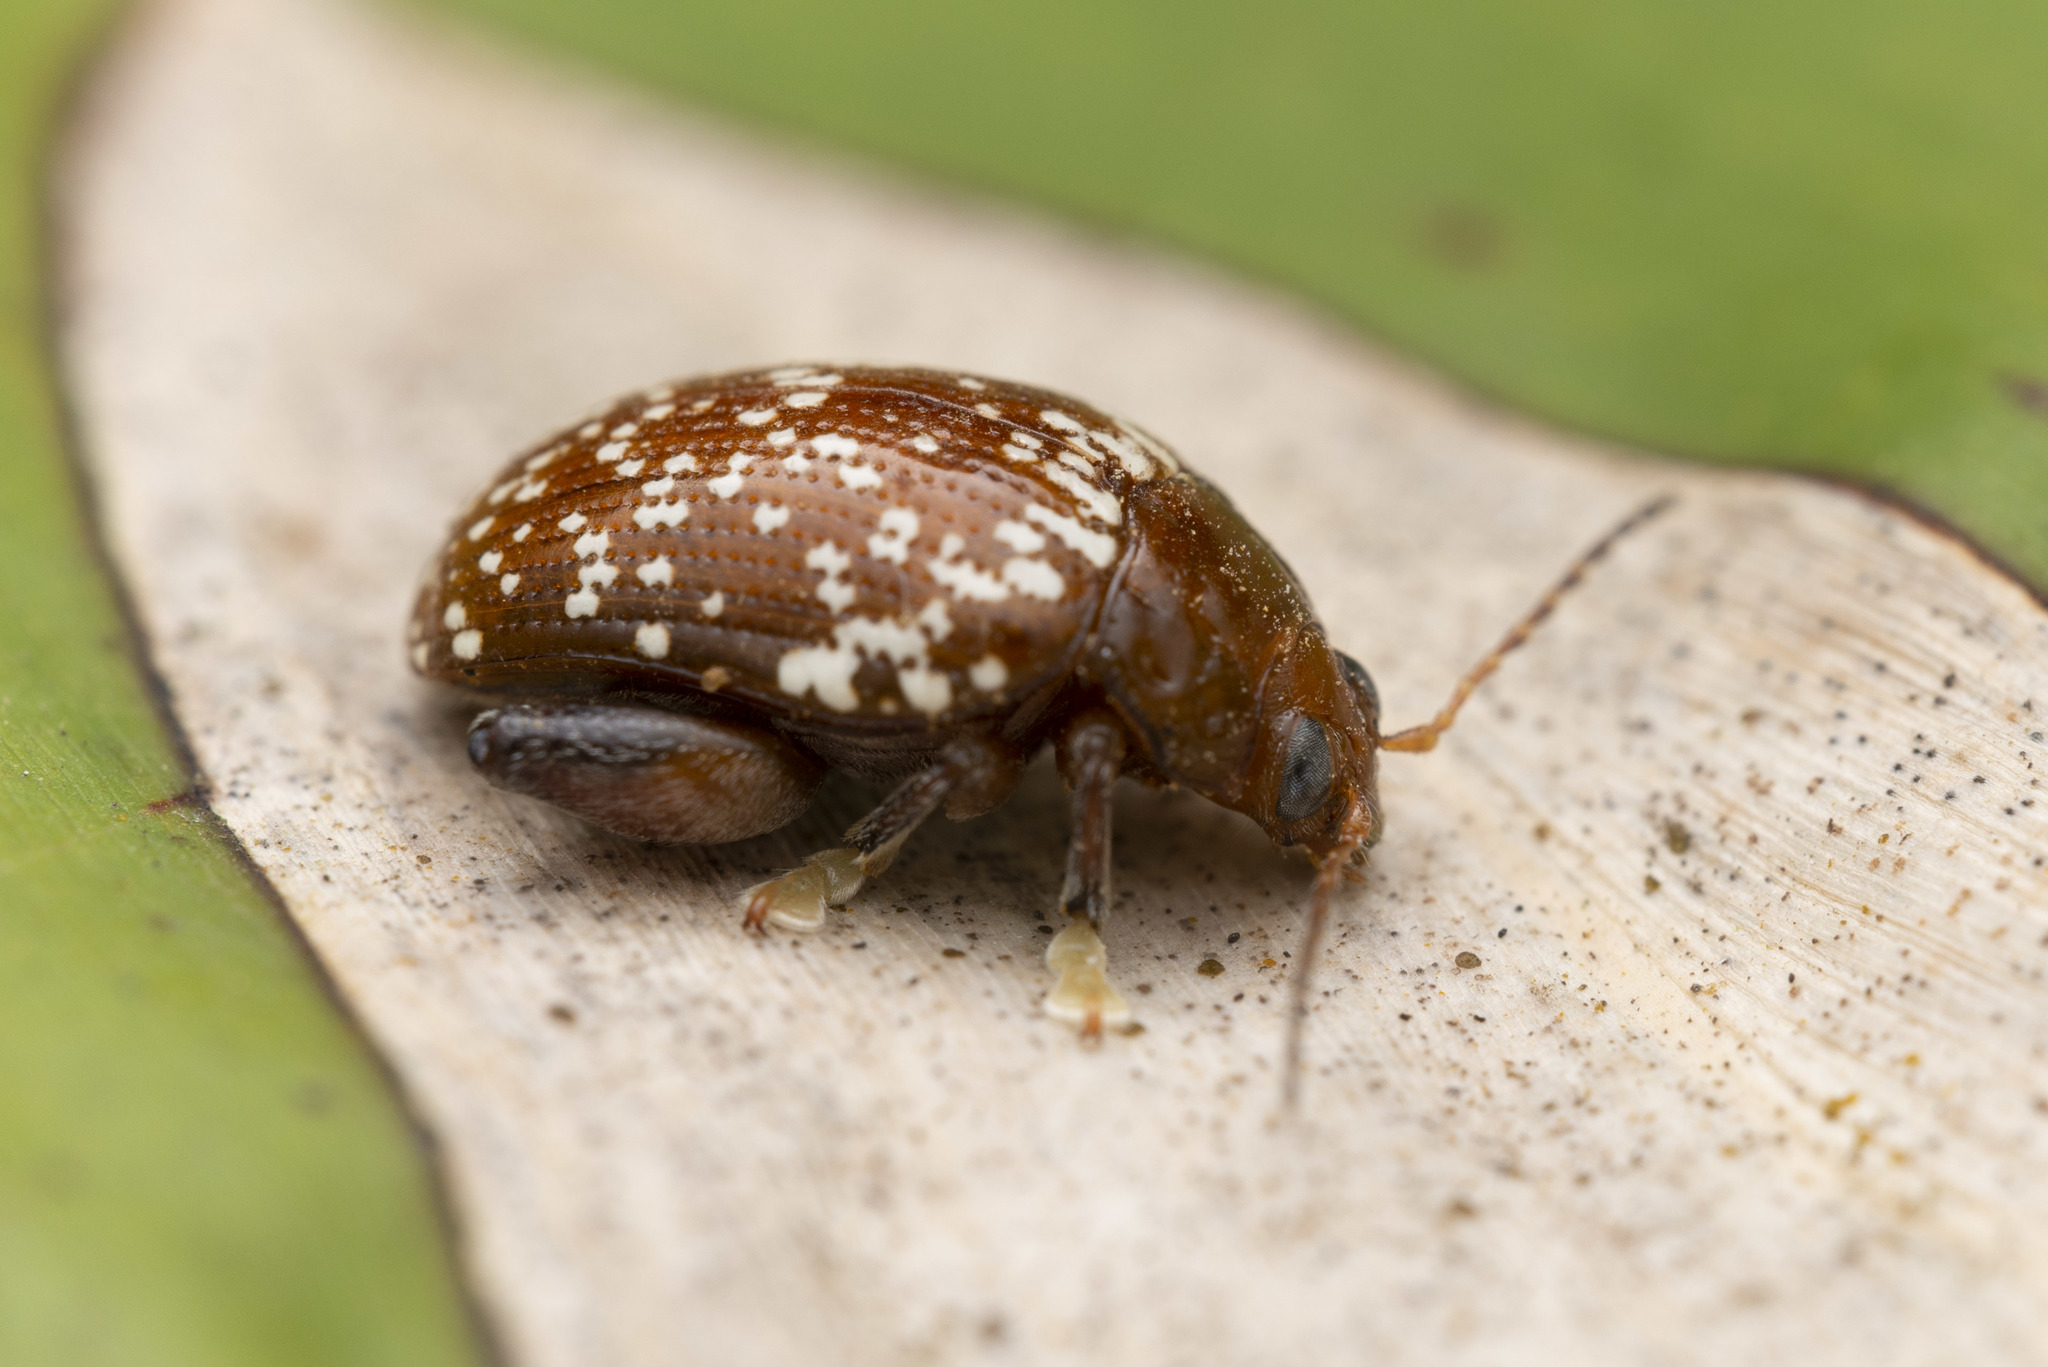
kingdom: Animalia
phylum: Arthropoda
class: Insecta
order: Coleoptera
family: Chrysomelidae
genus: Asiophrida
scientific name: Asiophrida
